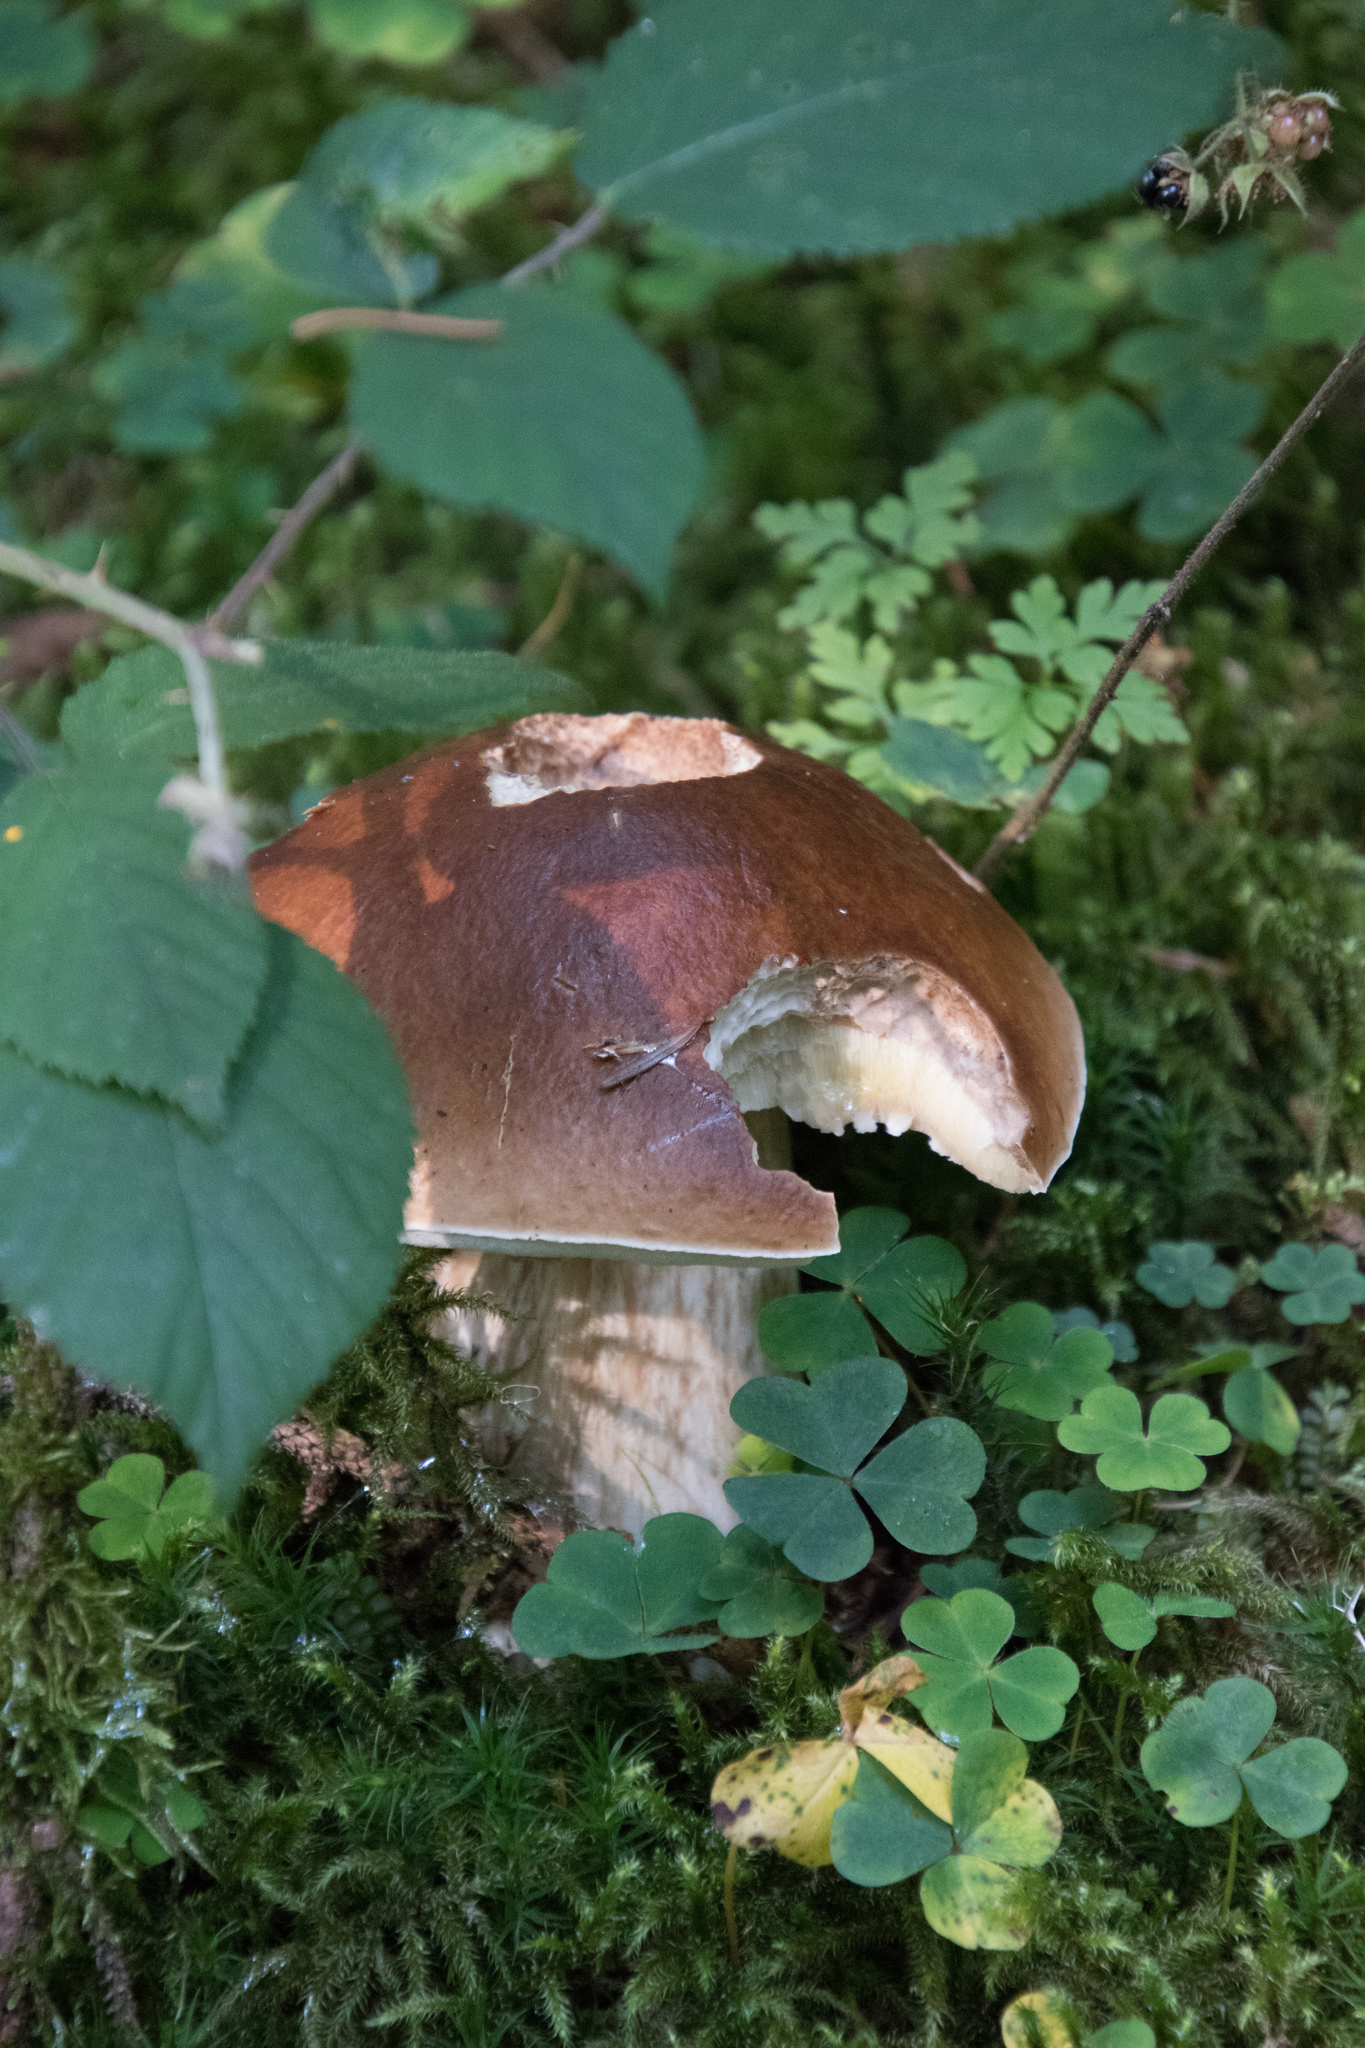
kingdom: Fungi
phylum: Basidiomycota
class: Agaricomycetes
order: Boletales
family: Boletaceae
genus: Boletus
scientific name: Boletus edulis
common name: Cep
